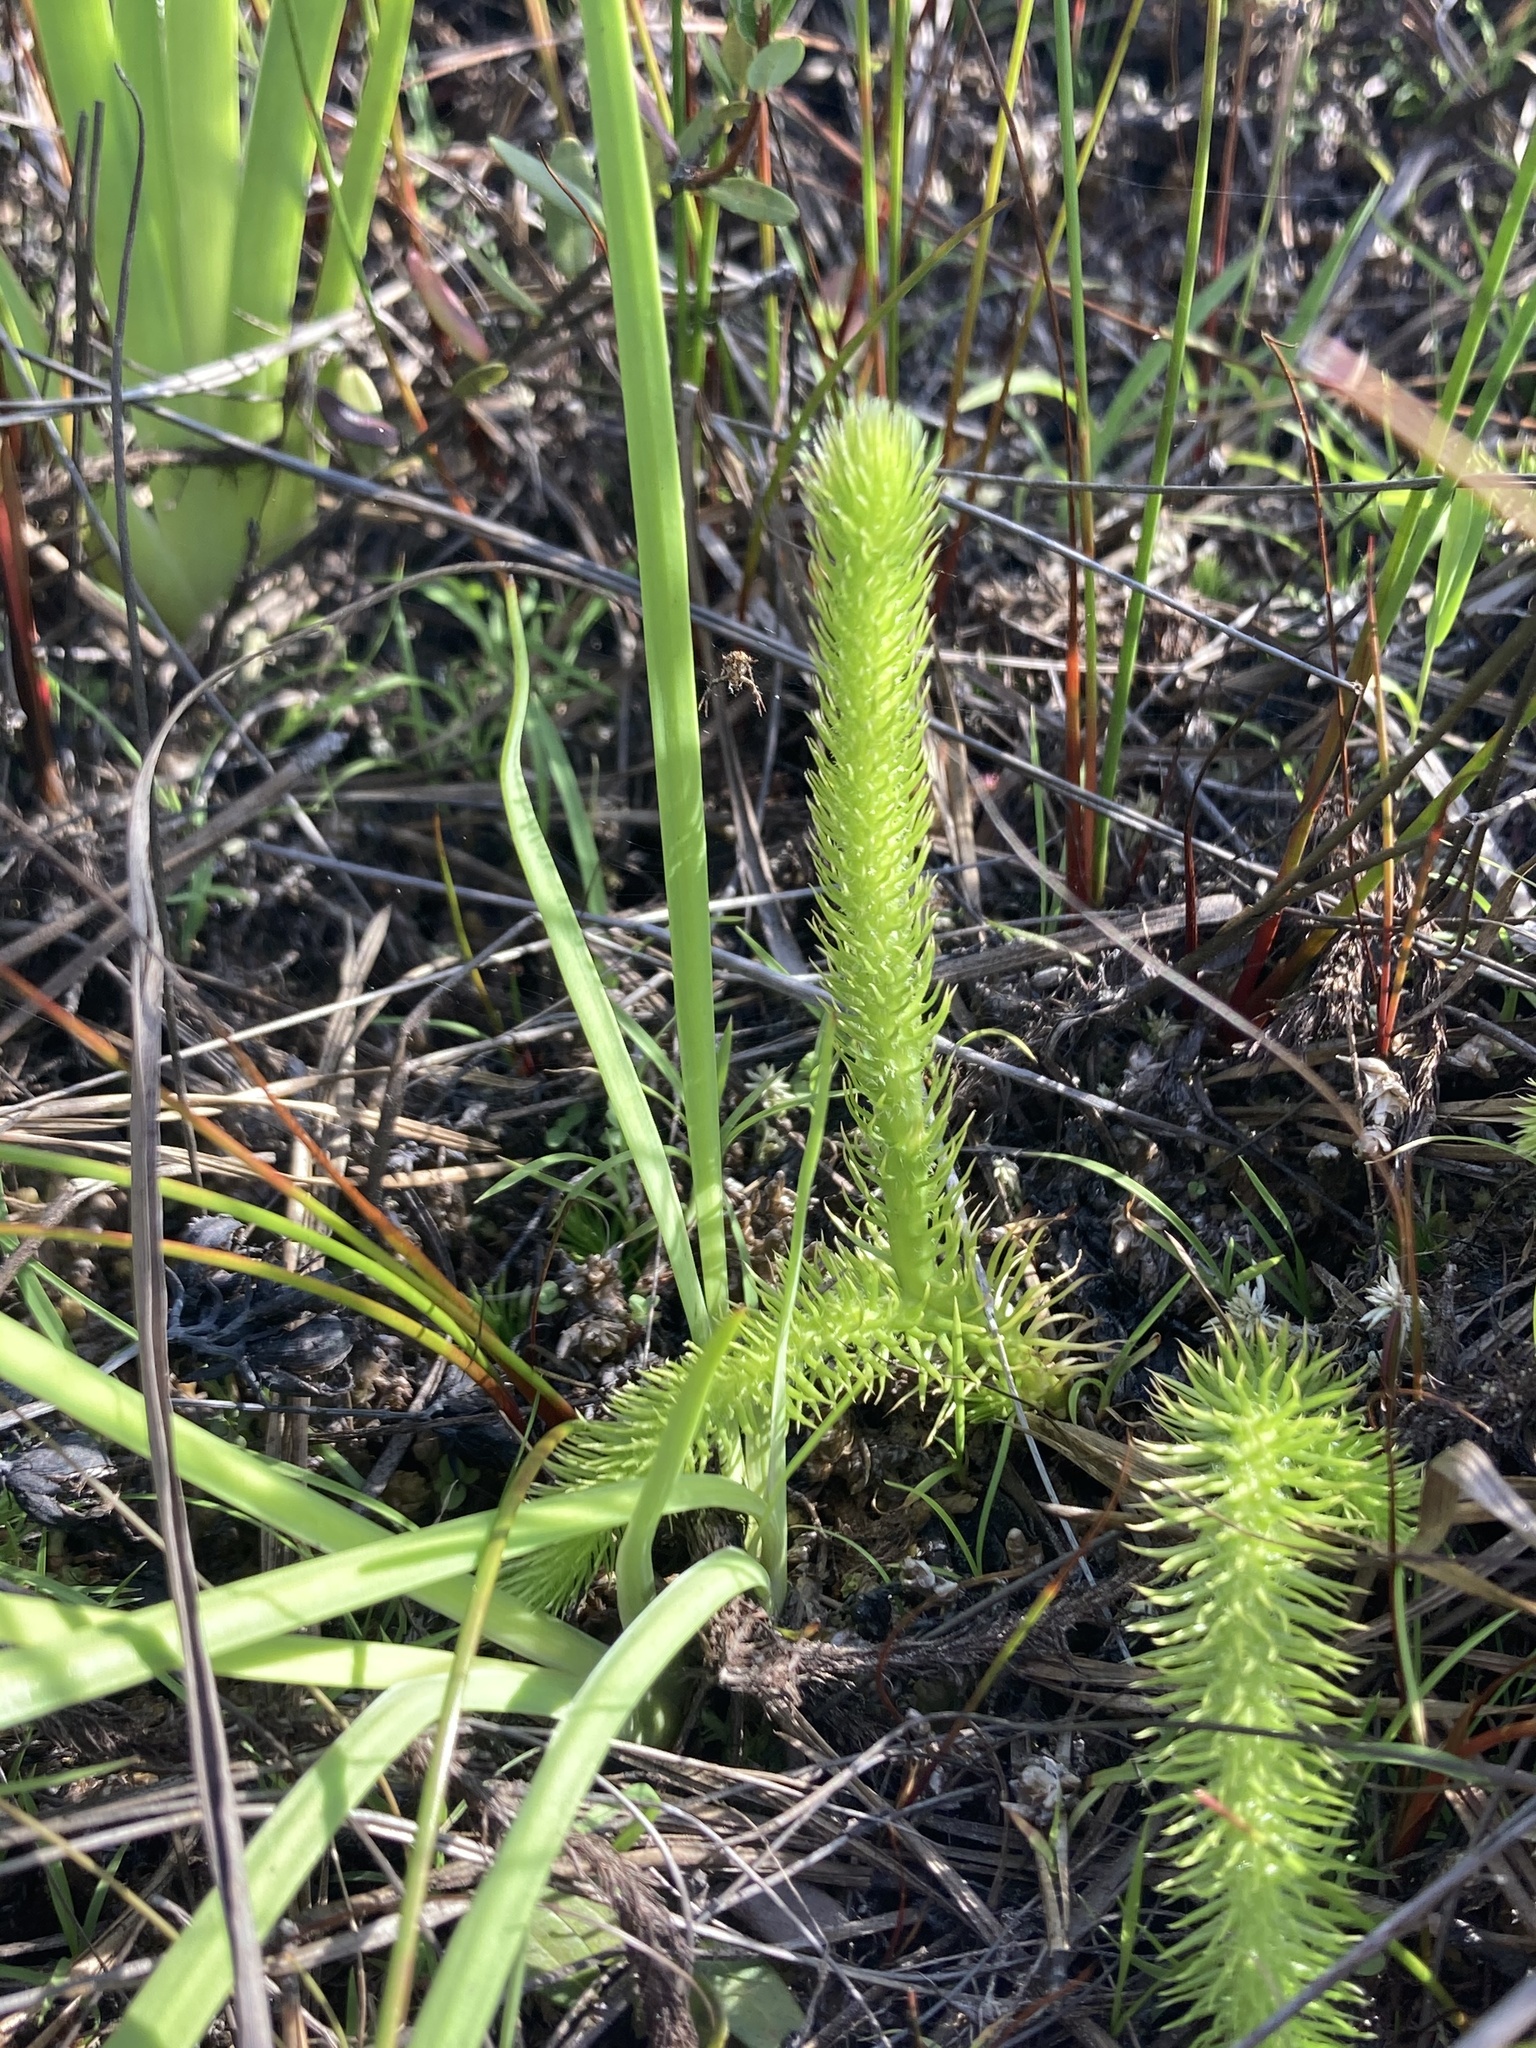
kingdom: Plantae
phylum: Tracheophyta
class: Lycopodiopsida
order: Lycopodiales
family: Lycopodiaceae
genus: Lycopodiella
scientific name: Lycopodiella alopecuroides
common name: Foxtail clubmoss
